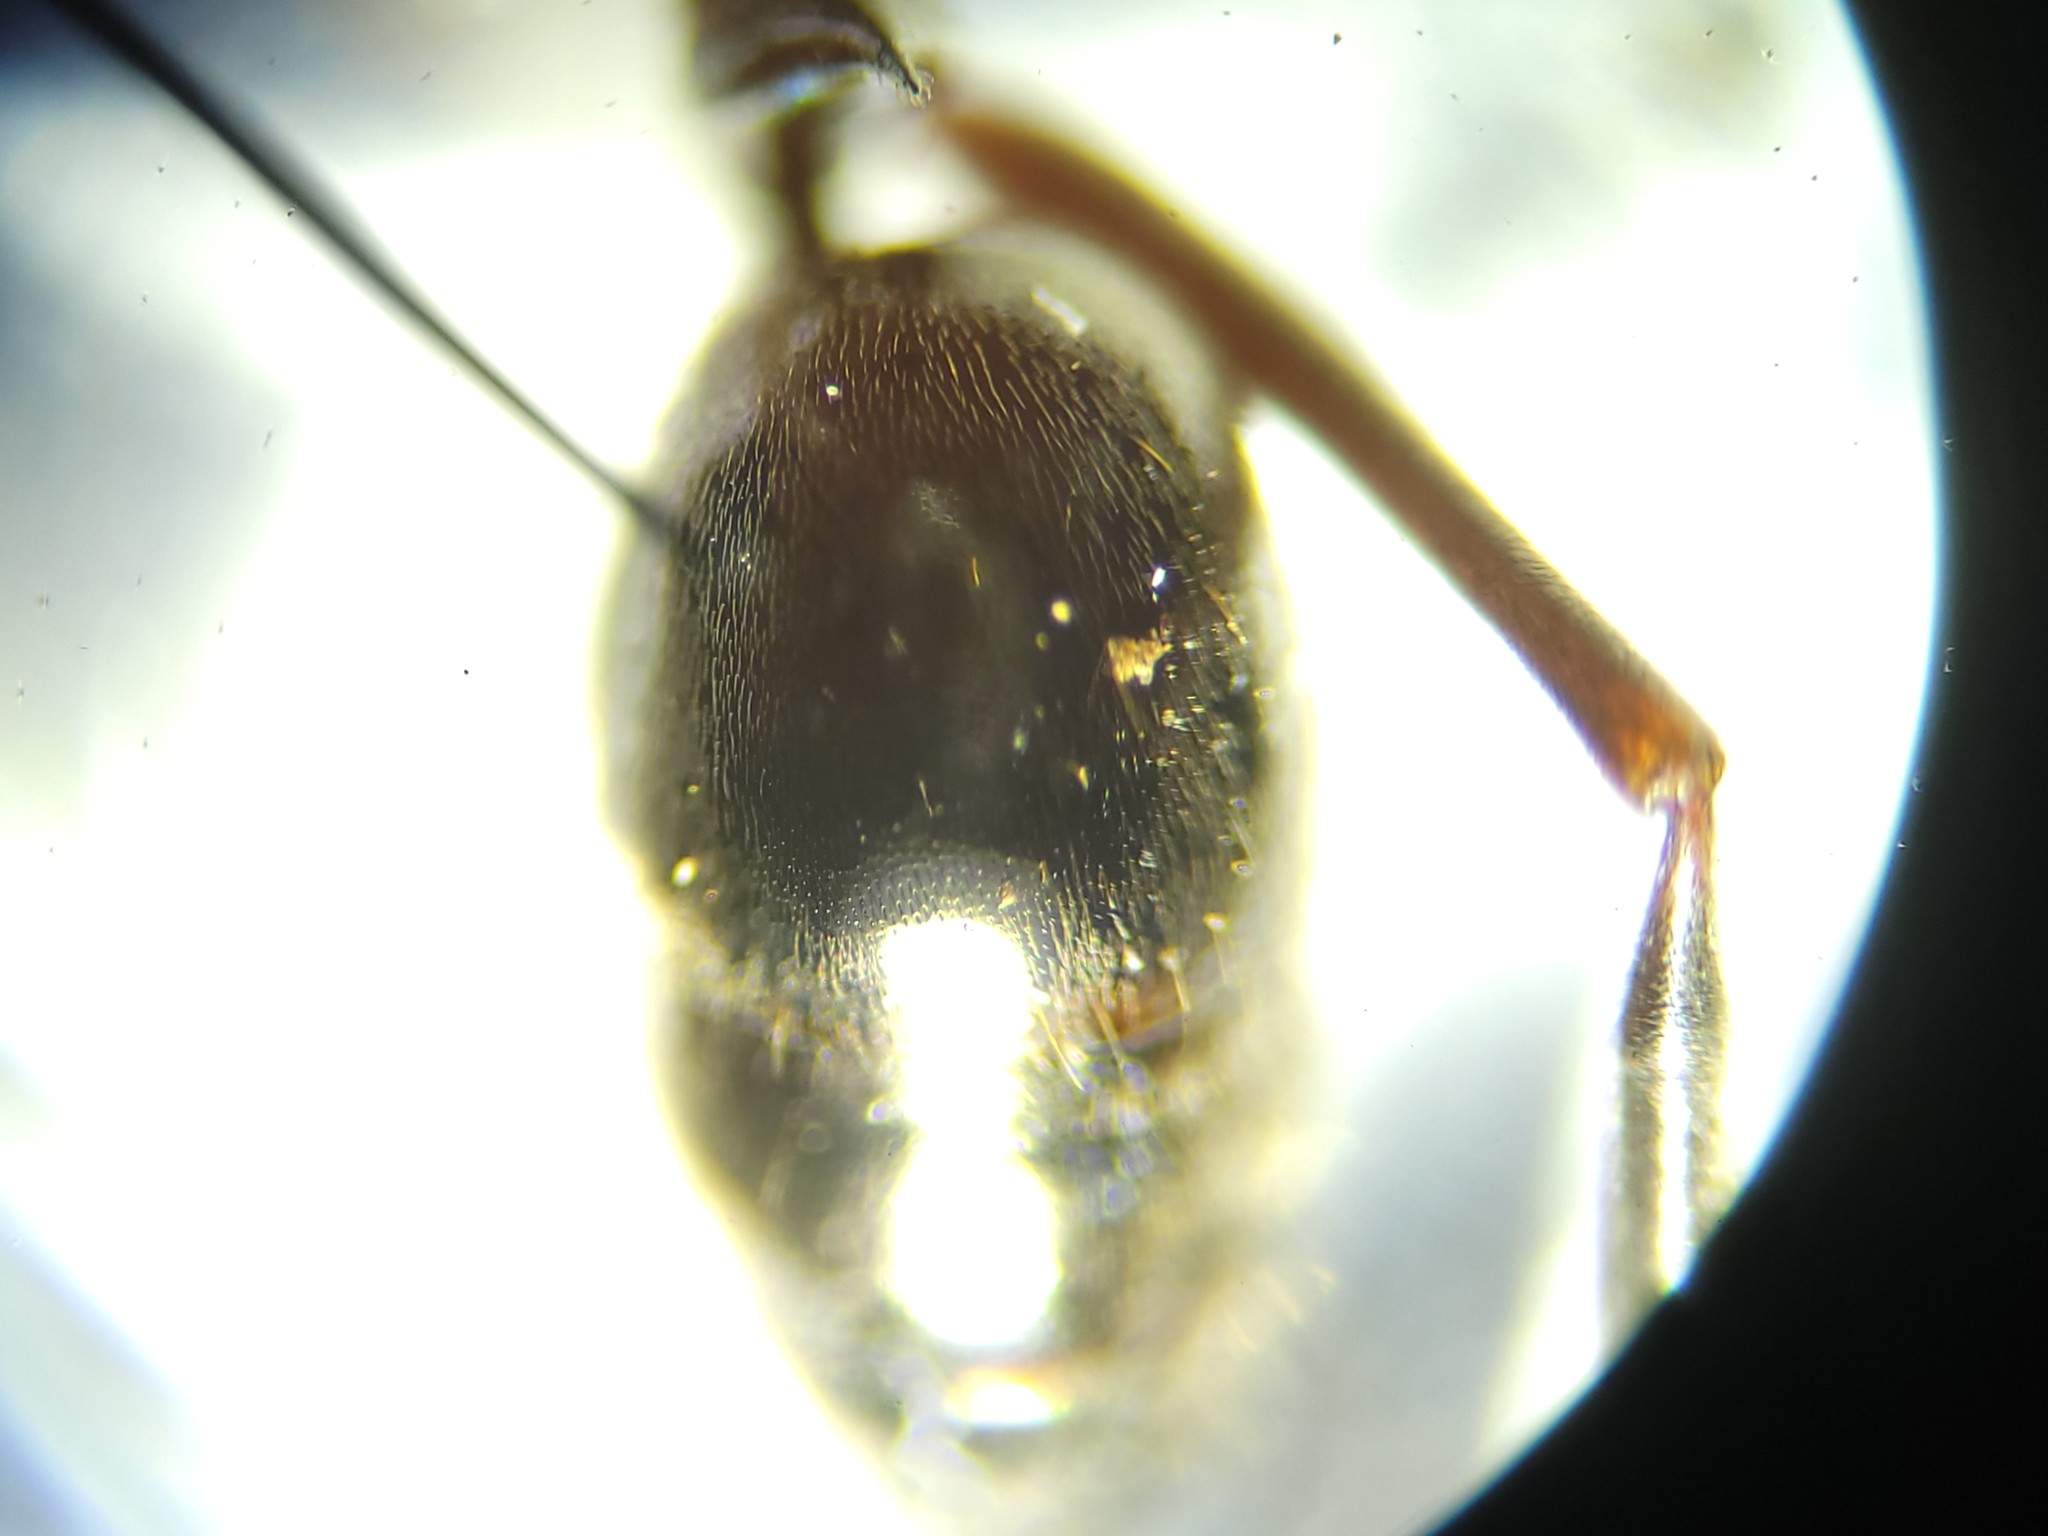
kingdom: Animalia
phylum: Arthropoda
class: Insecta
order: Hymenoptera
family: Formicidae
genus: Odontomachus
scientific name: Odontomachus brunneus
